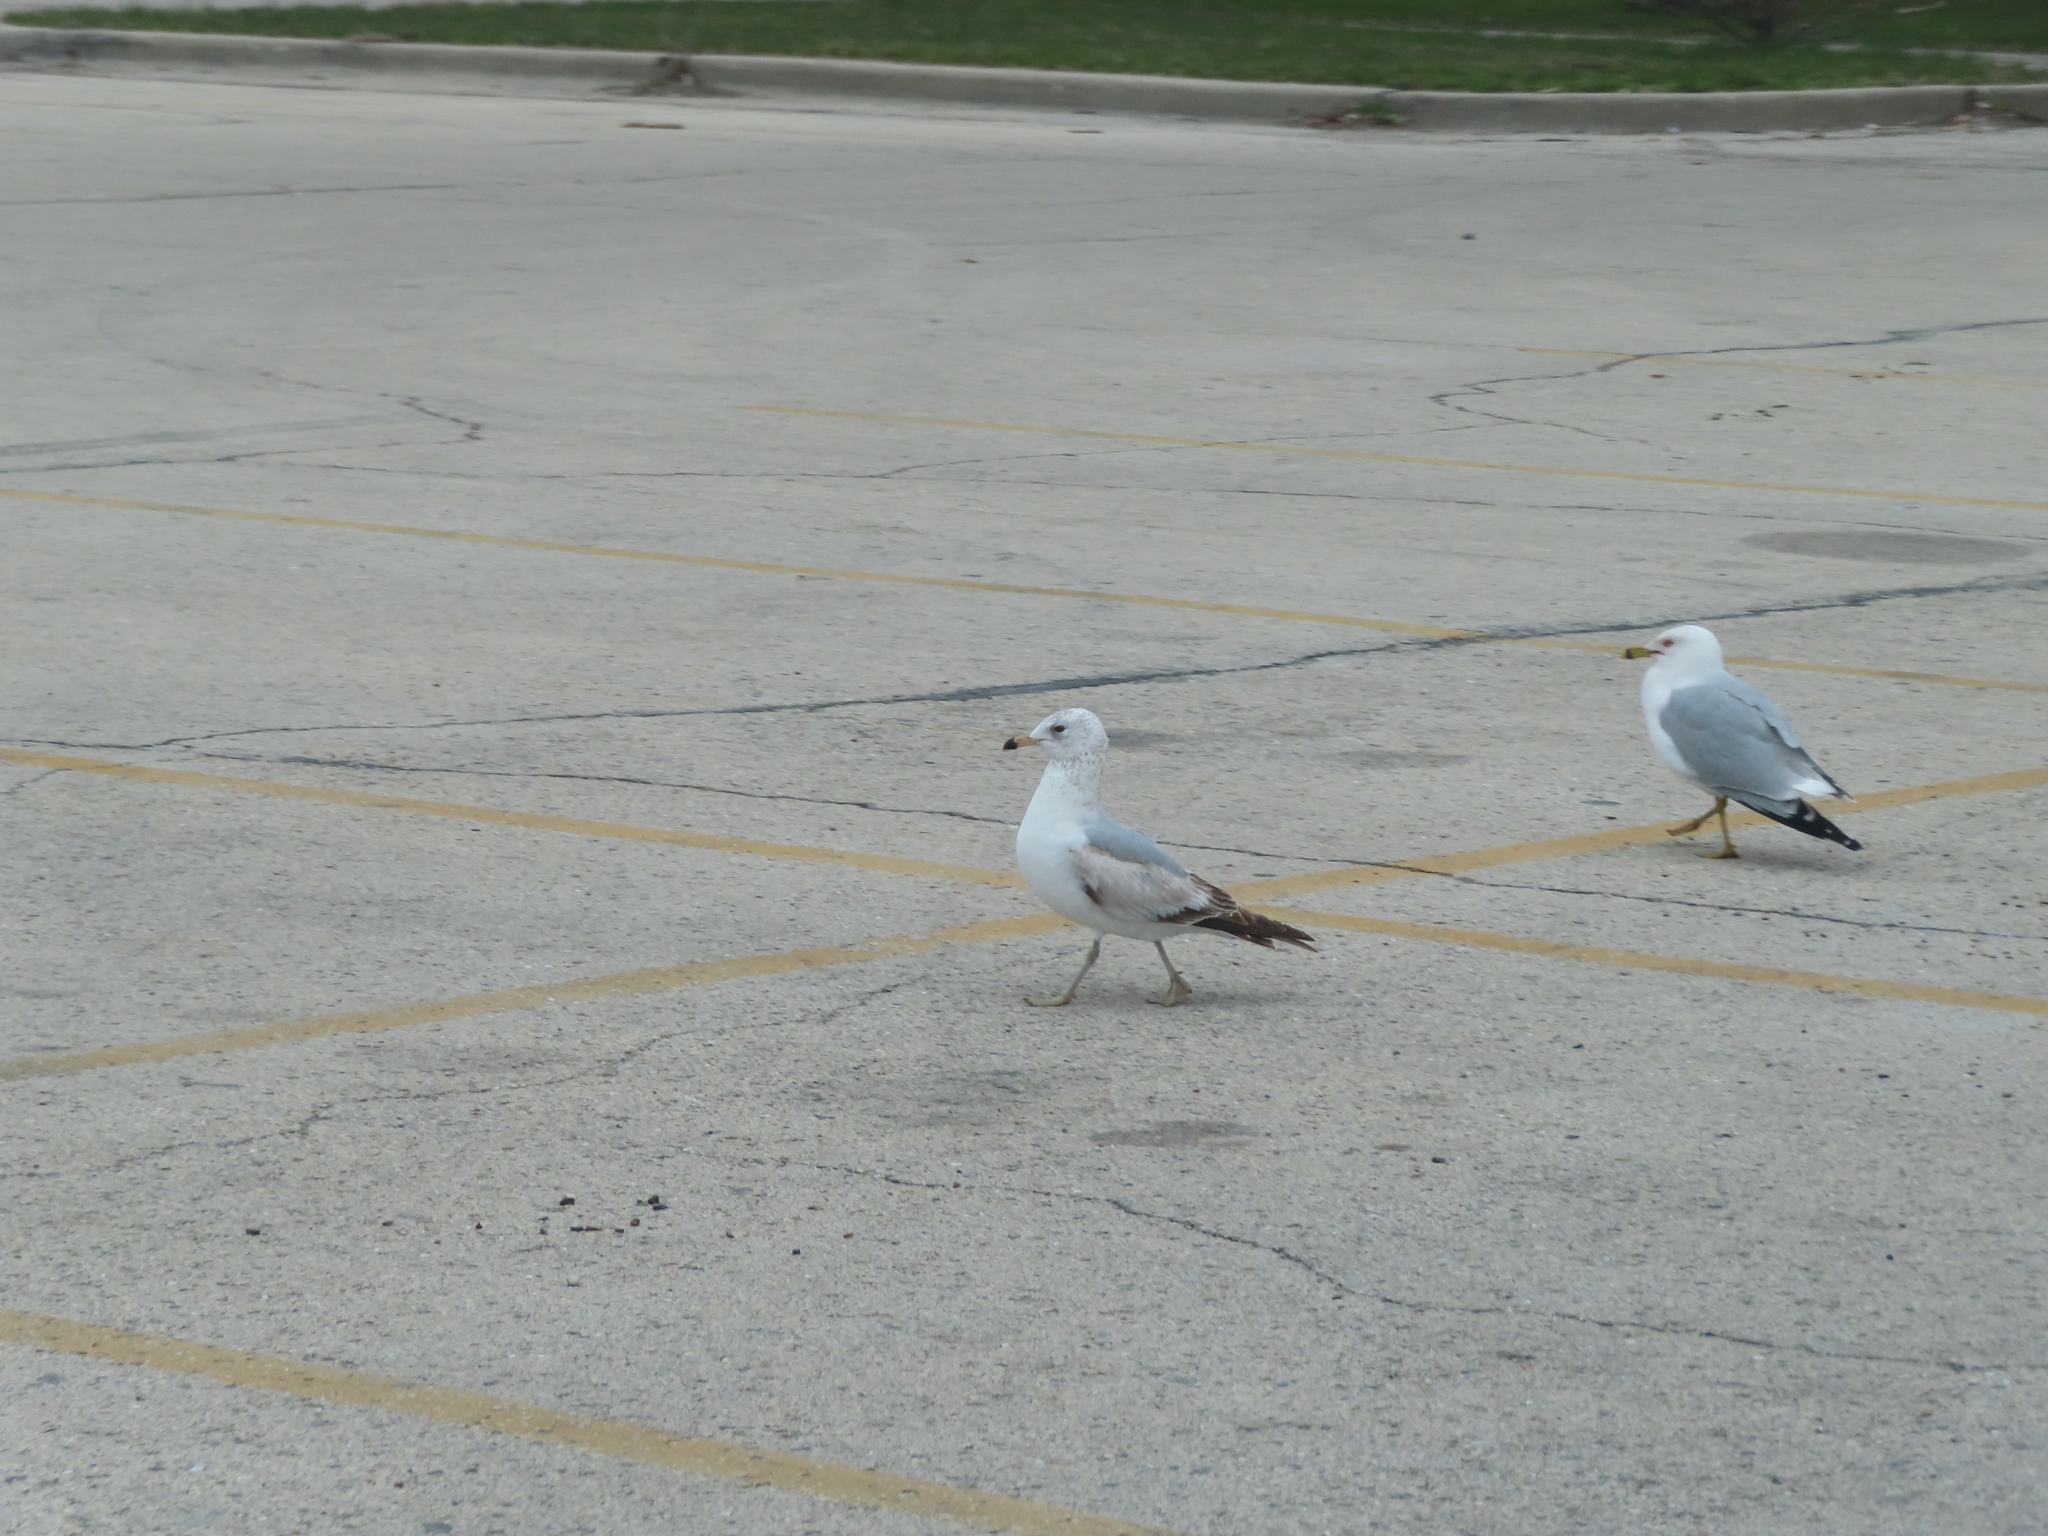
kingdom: Animalia
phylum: Chordata
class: Aves
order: Charadriiformes
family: Laridae
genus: Larus
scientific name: Larus delawarensis
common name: Ring-billed gull
